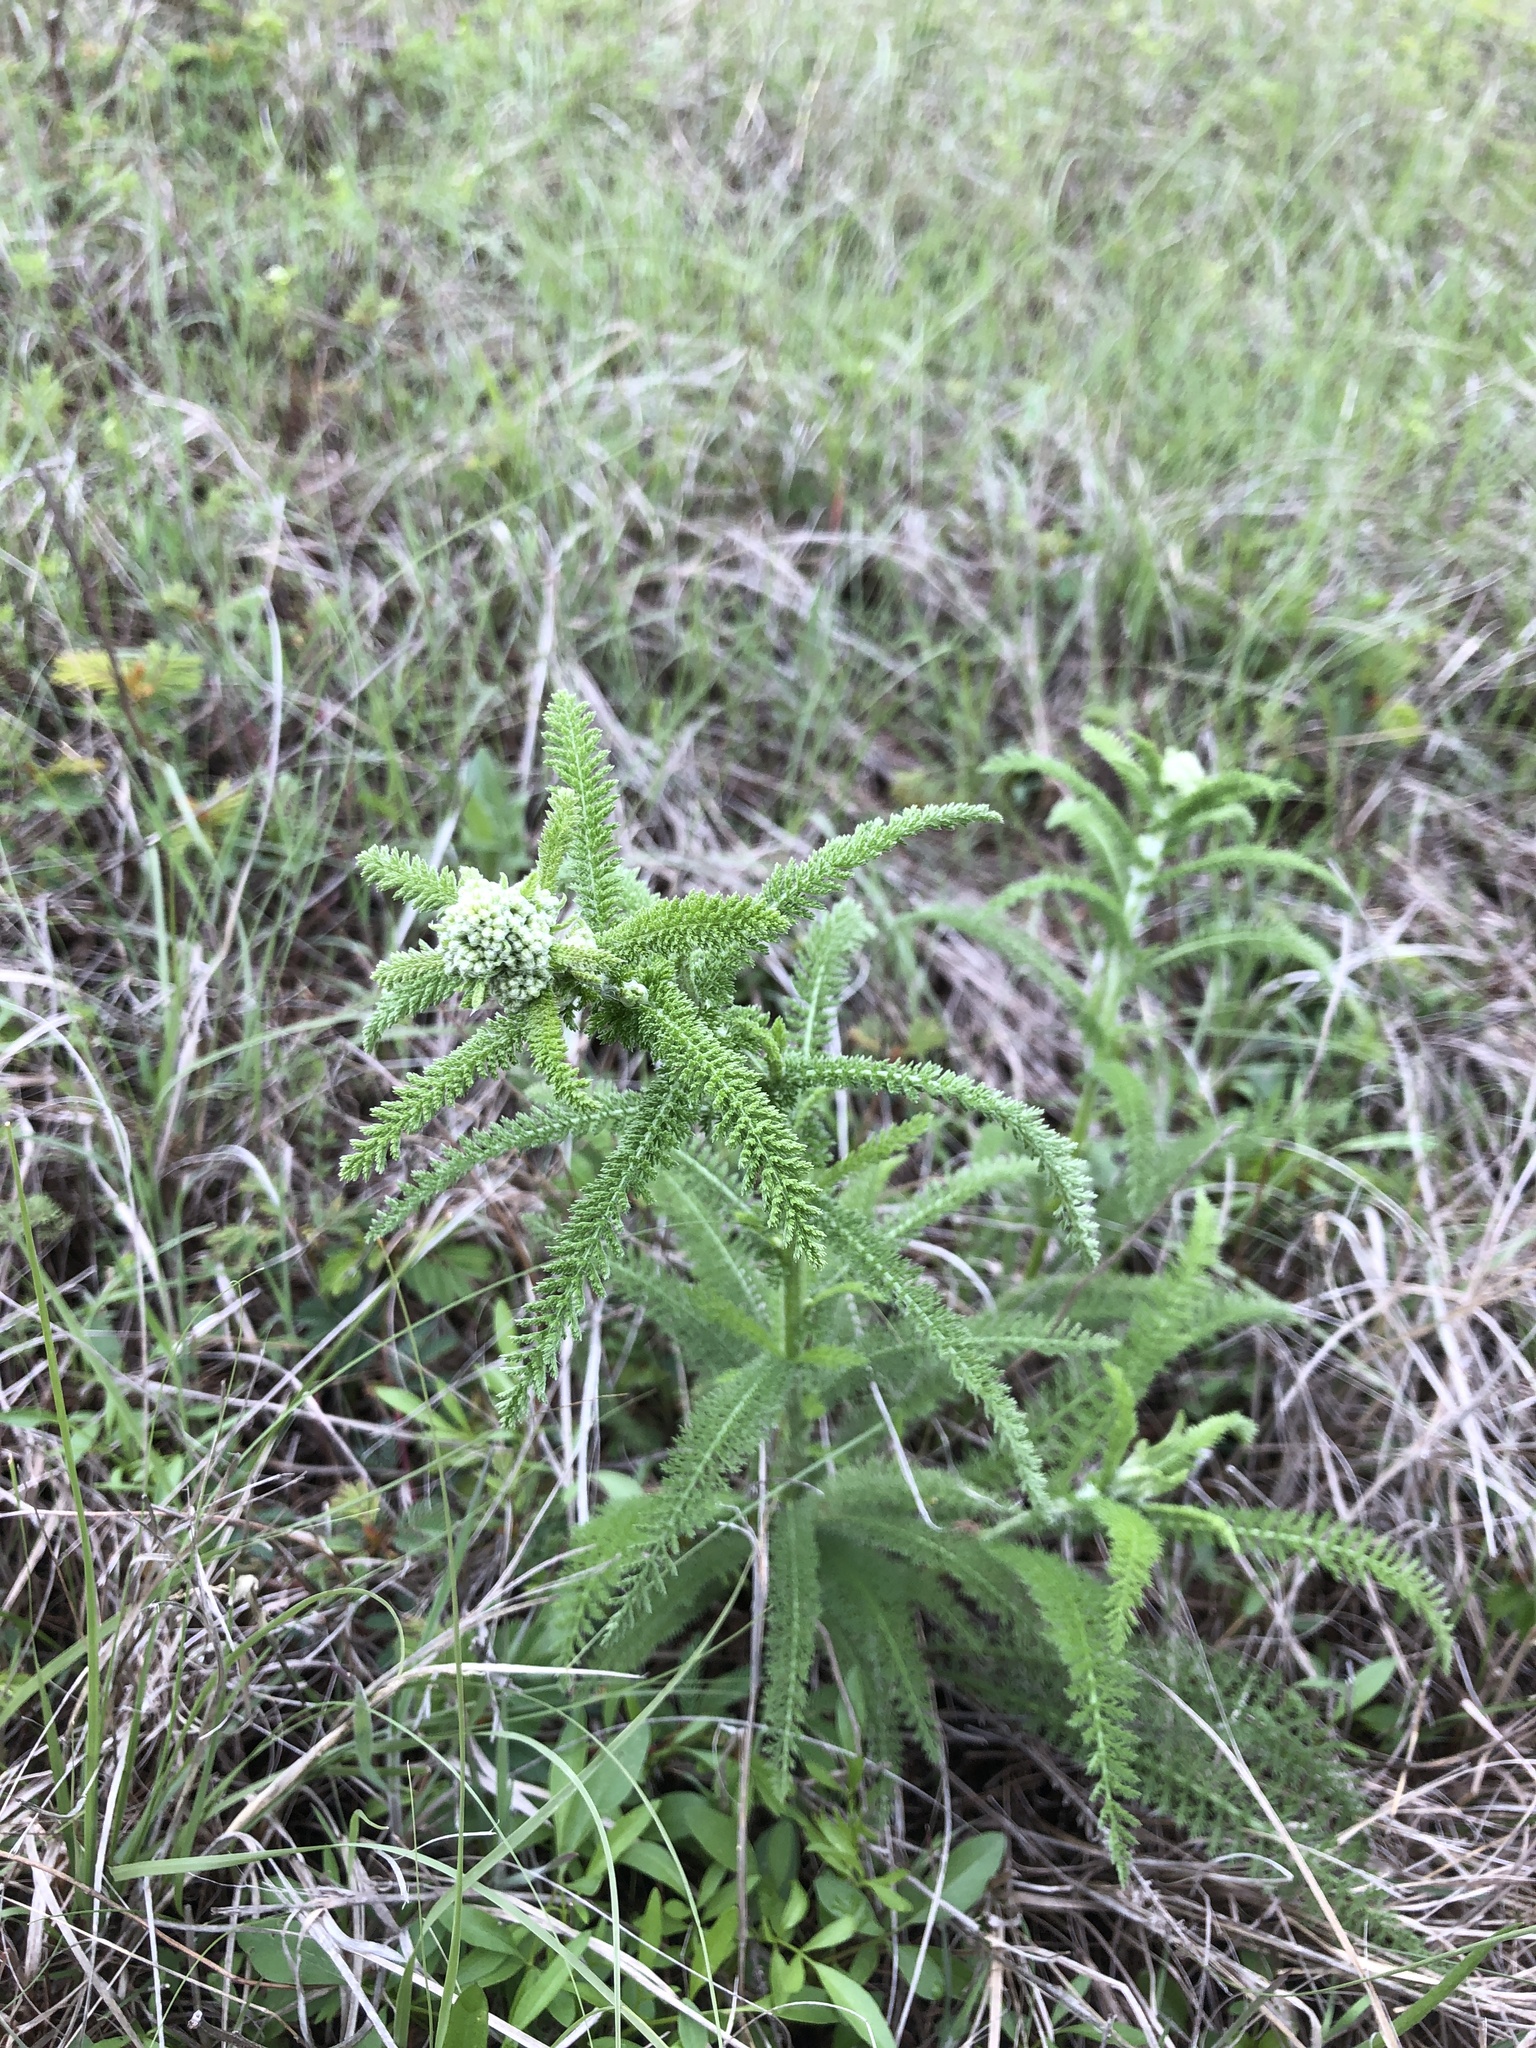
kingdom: Plantae
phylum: Tracheophyta
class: Magnoliopsida
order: Asterales
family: Asteraceae
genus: Achillea
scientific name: Achillea millefolium
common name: Yarrow
